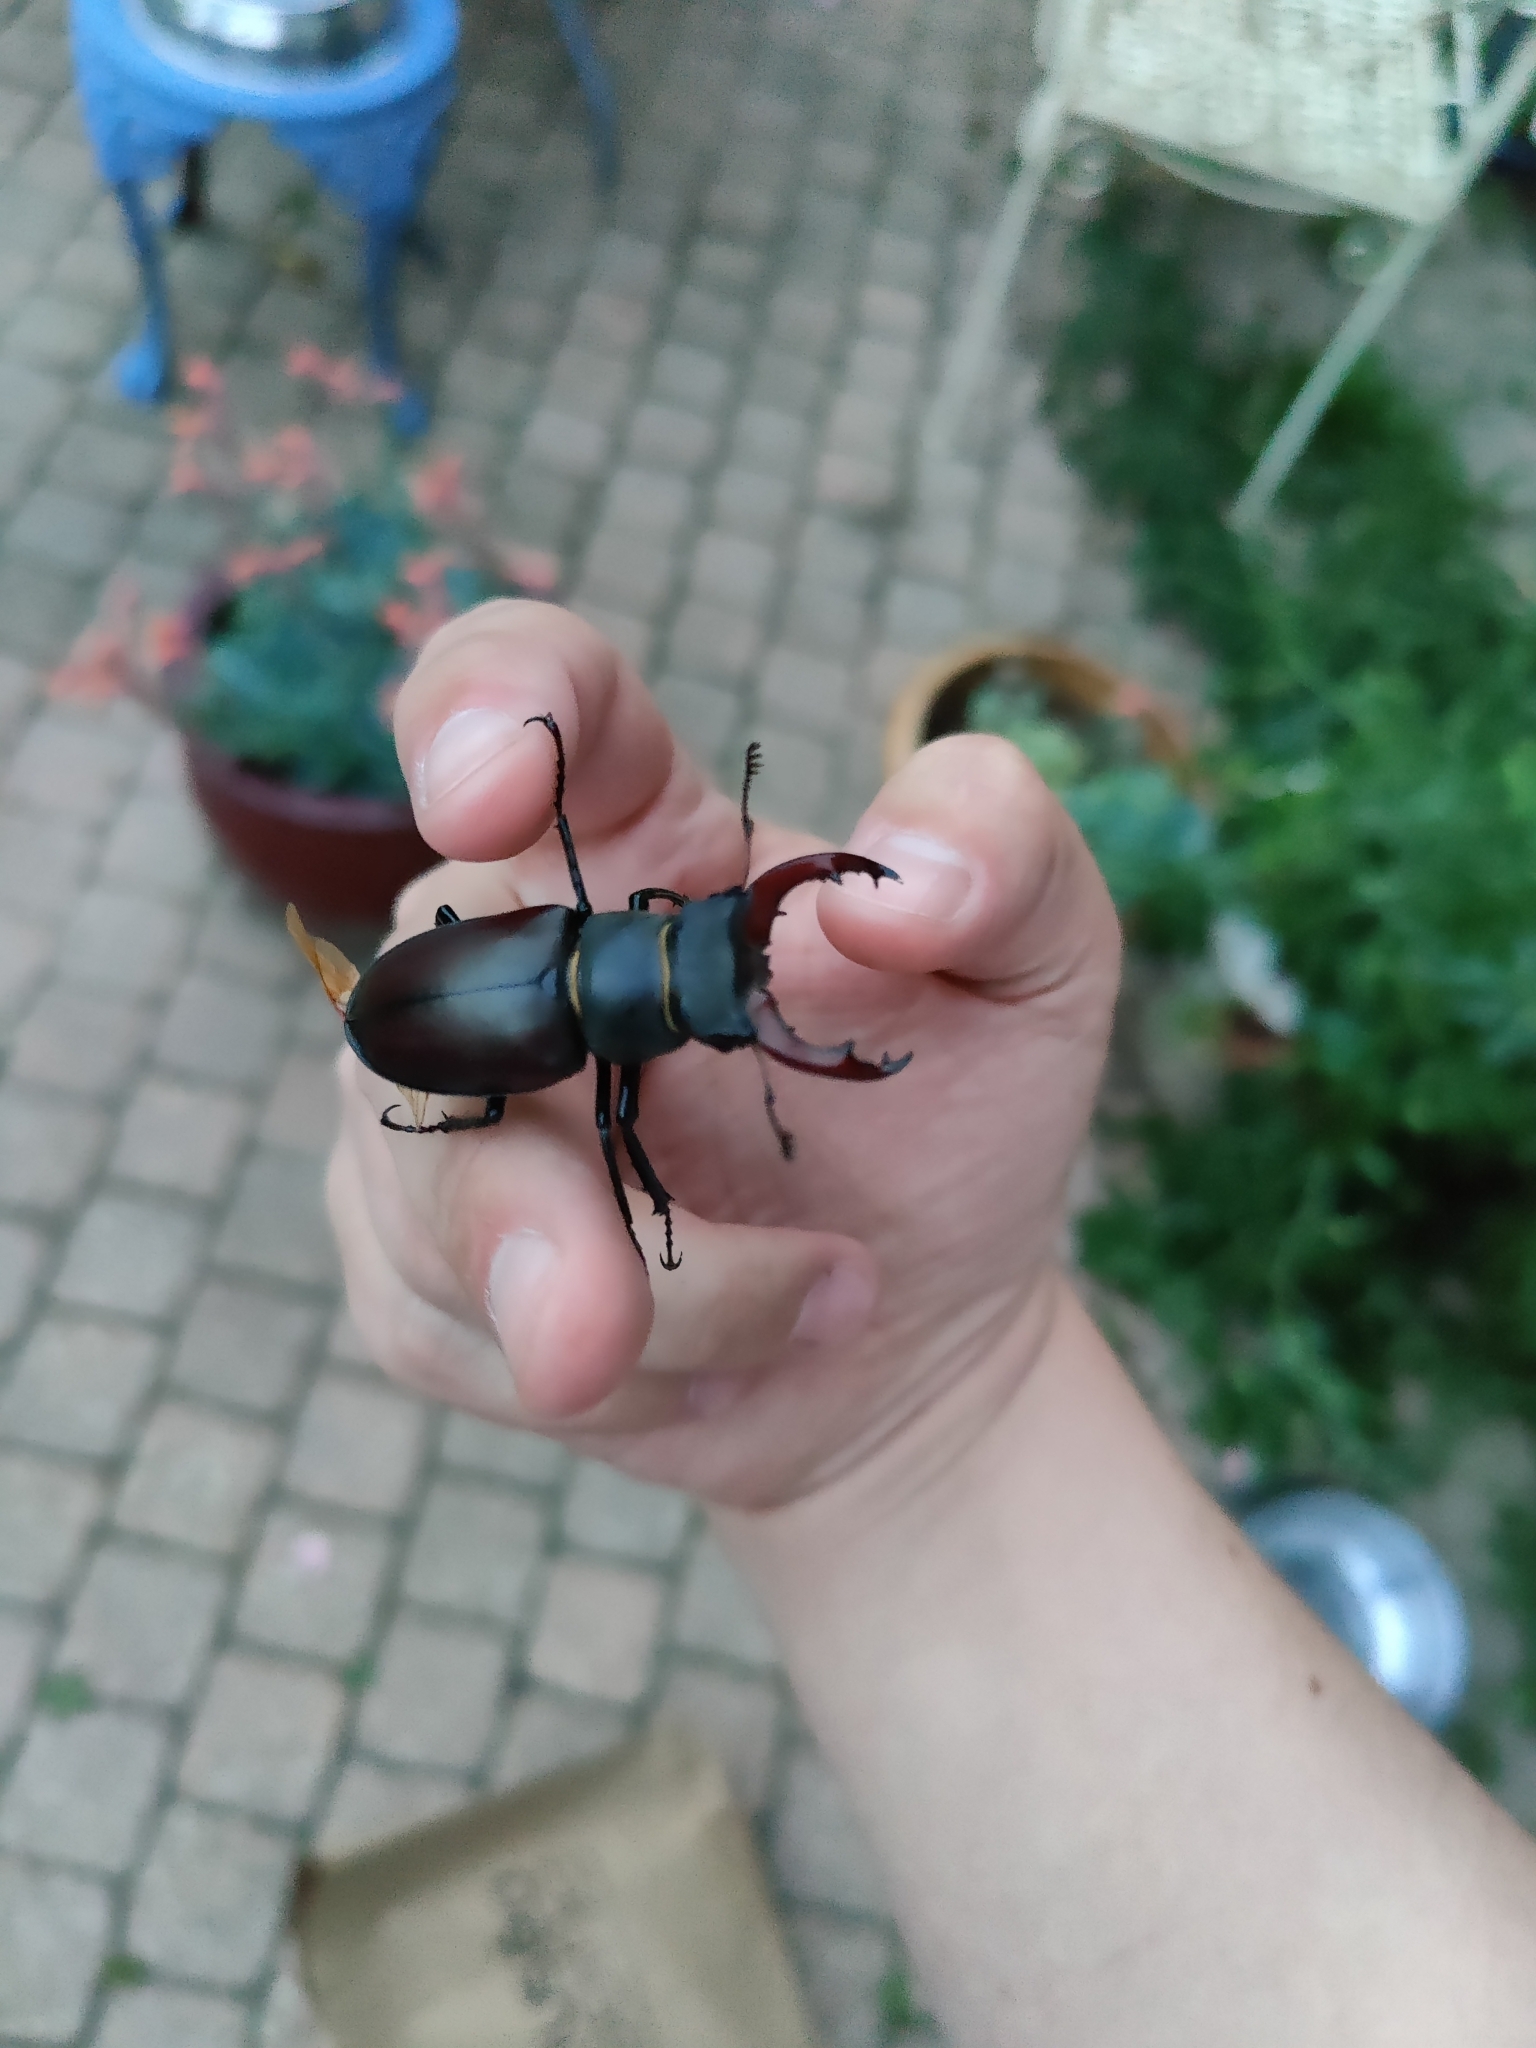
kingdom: Animalia
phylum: Arthropoda
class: Insecta
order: Coleoptera
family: Lucanidae
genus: Lucanus
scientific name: Lucanus cervus
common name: Stag beetle
